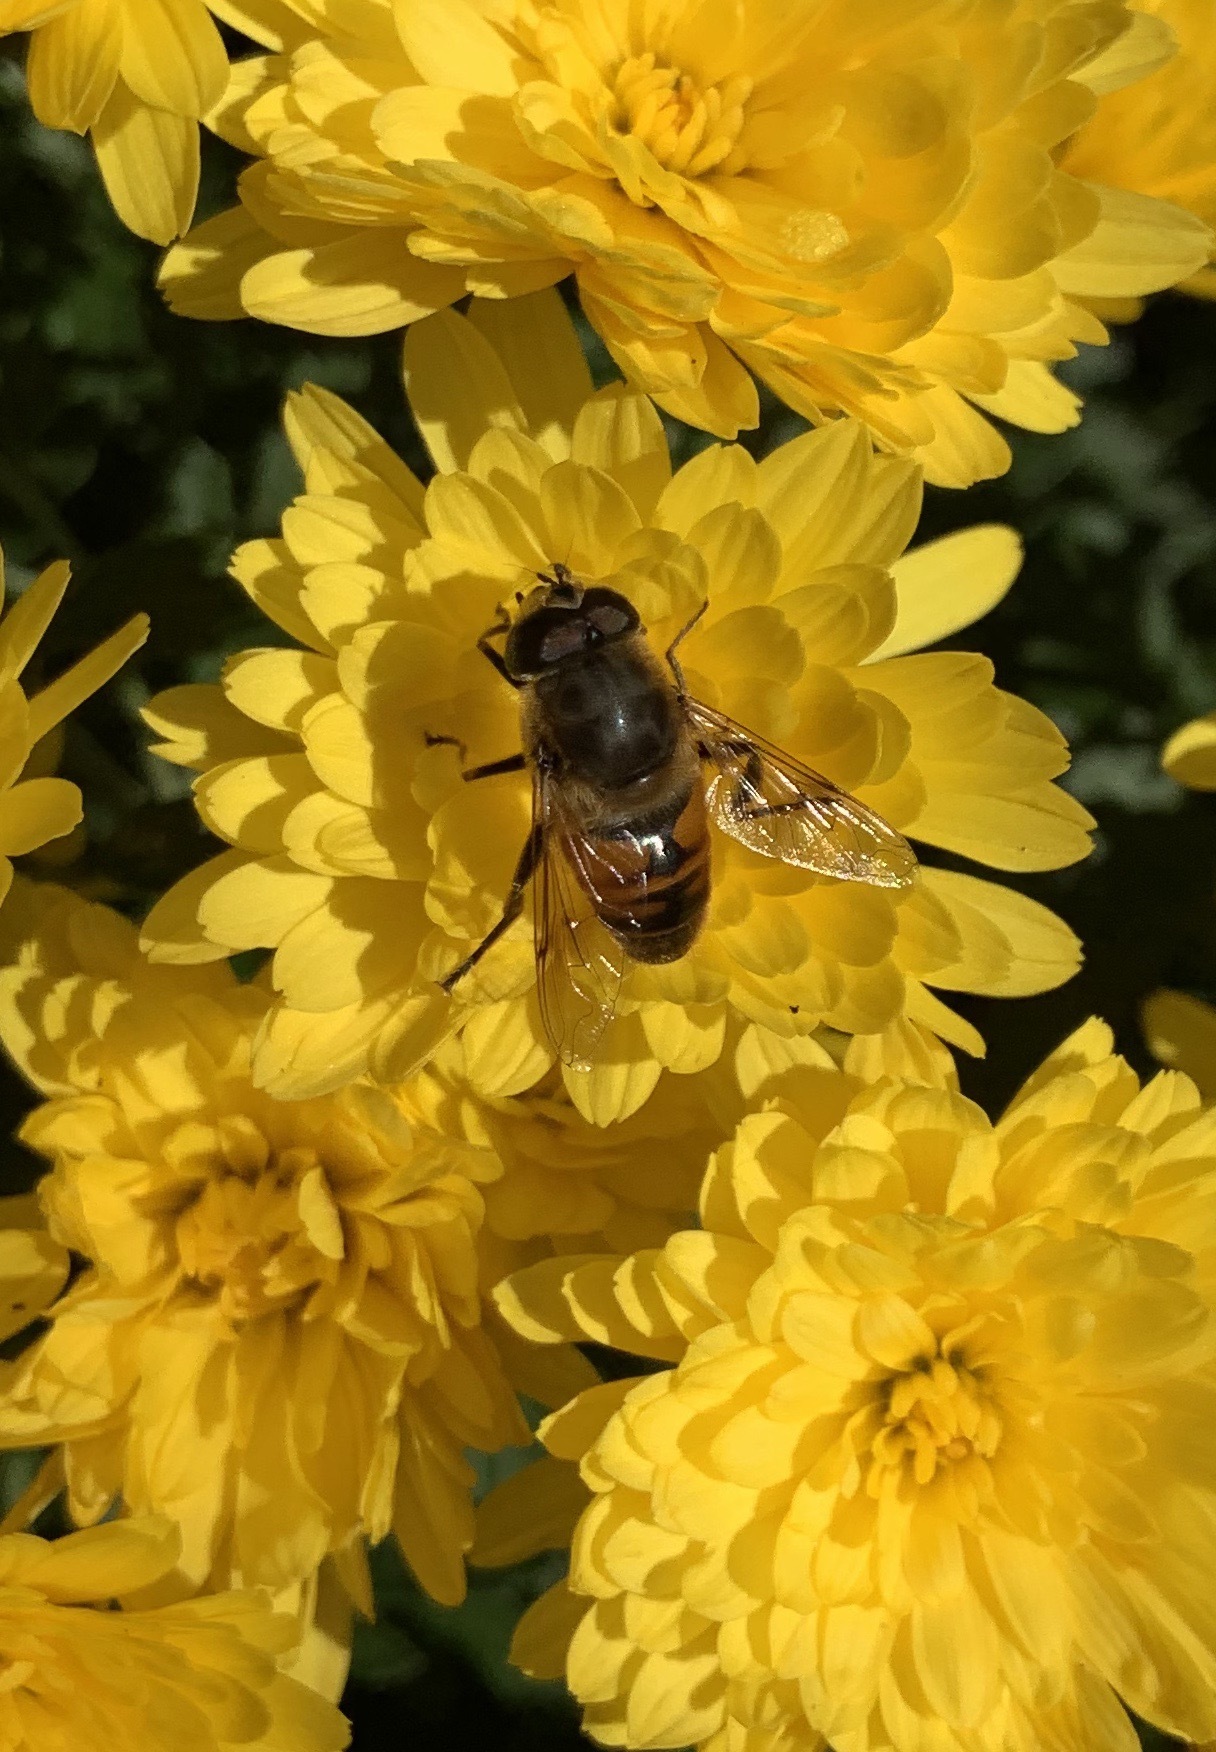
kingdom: Animalia
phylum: Arthropoda
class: Insecta
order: Diptera
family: Syrphidae
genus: Eristalis
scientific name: Eristalis tenax
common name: Drone fly
